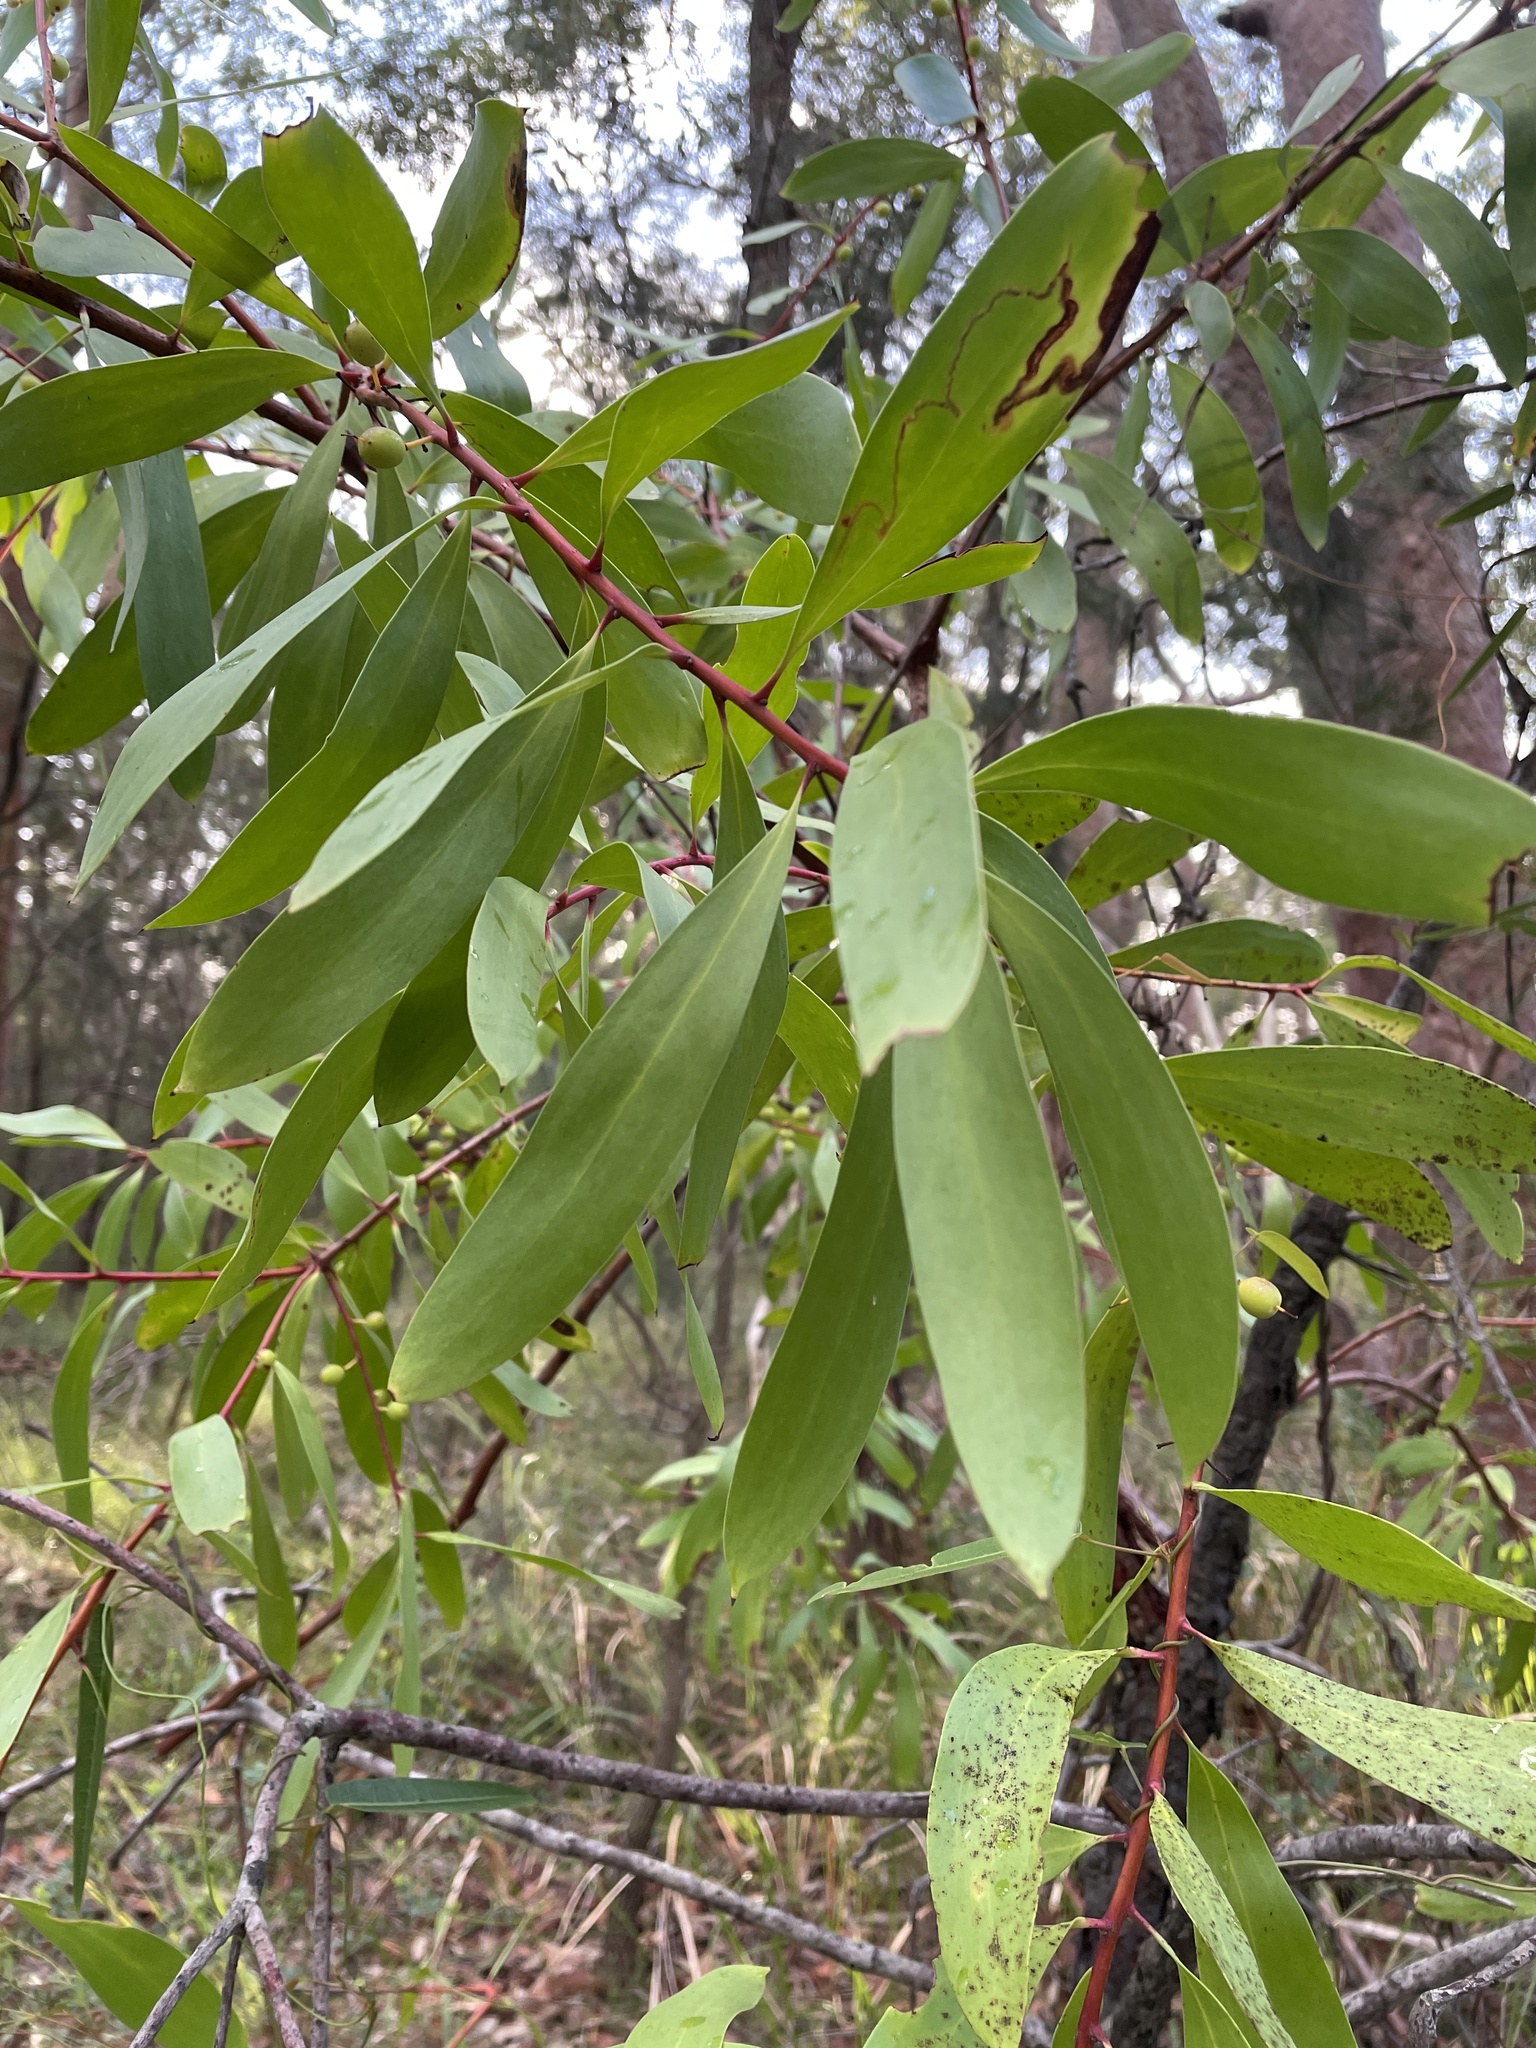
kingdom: Plantae
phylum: Tracheophyta
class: Magnoliopsida
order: Proteales
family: Proteaceae
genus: Persoonia
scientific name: Persoonia levis
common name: Smooth geebung
